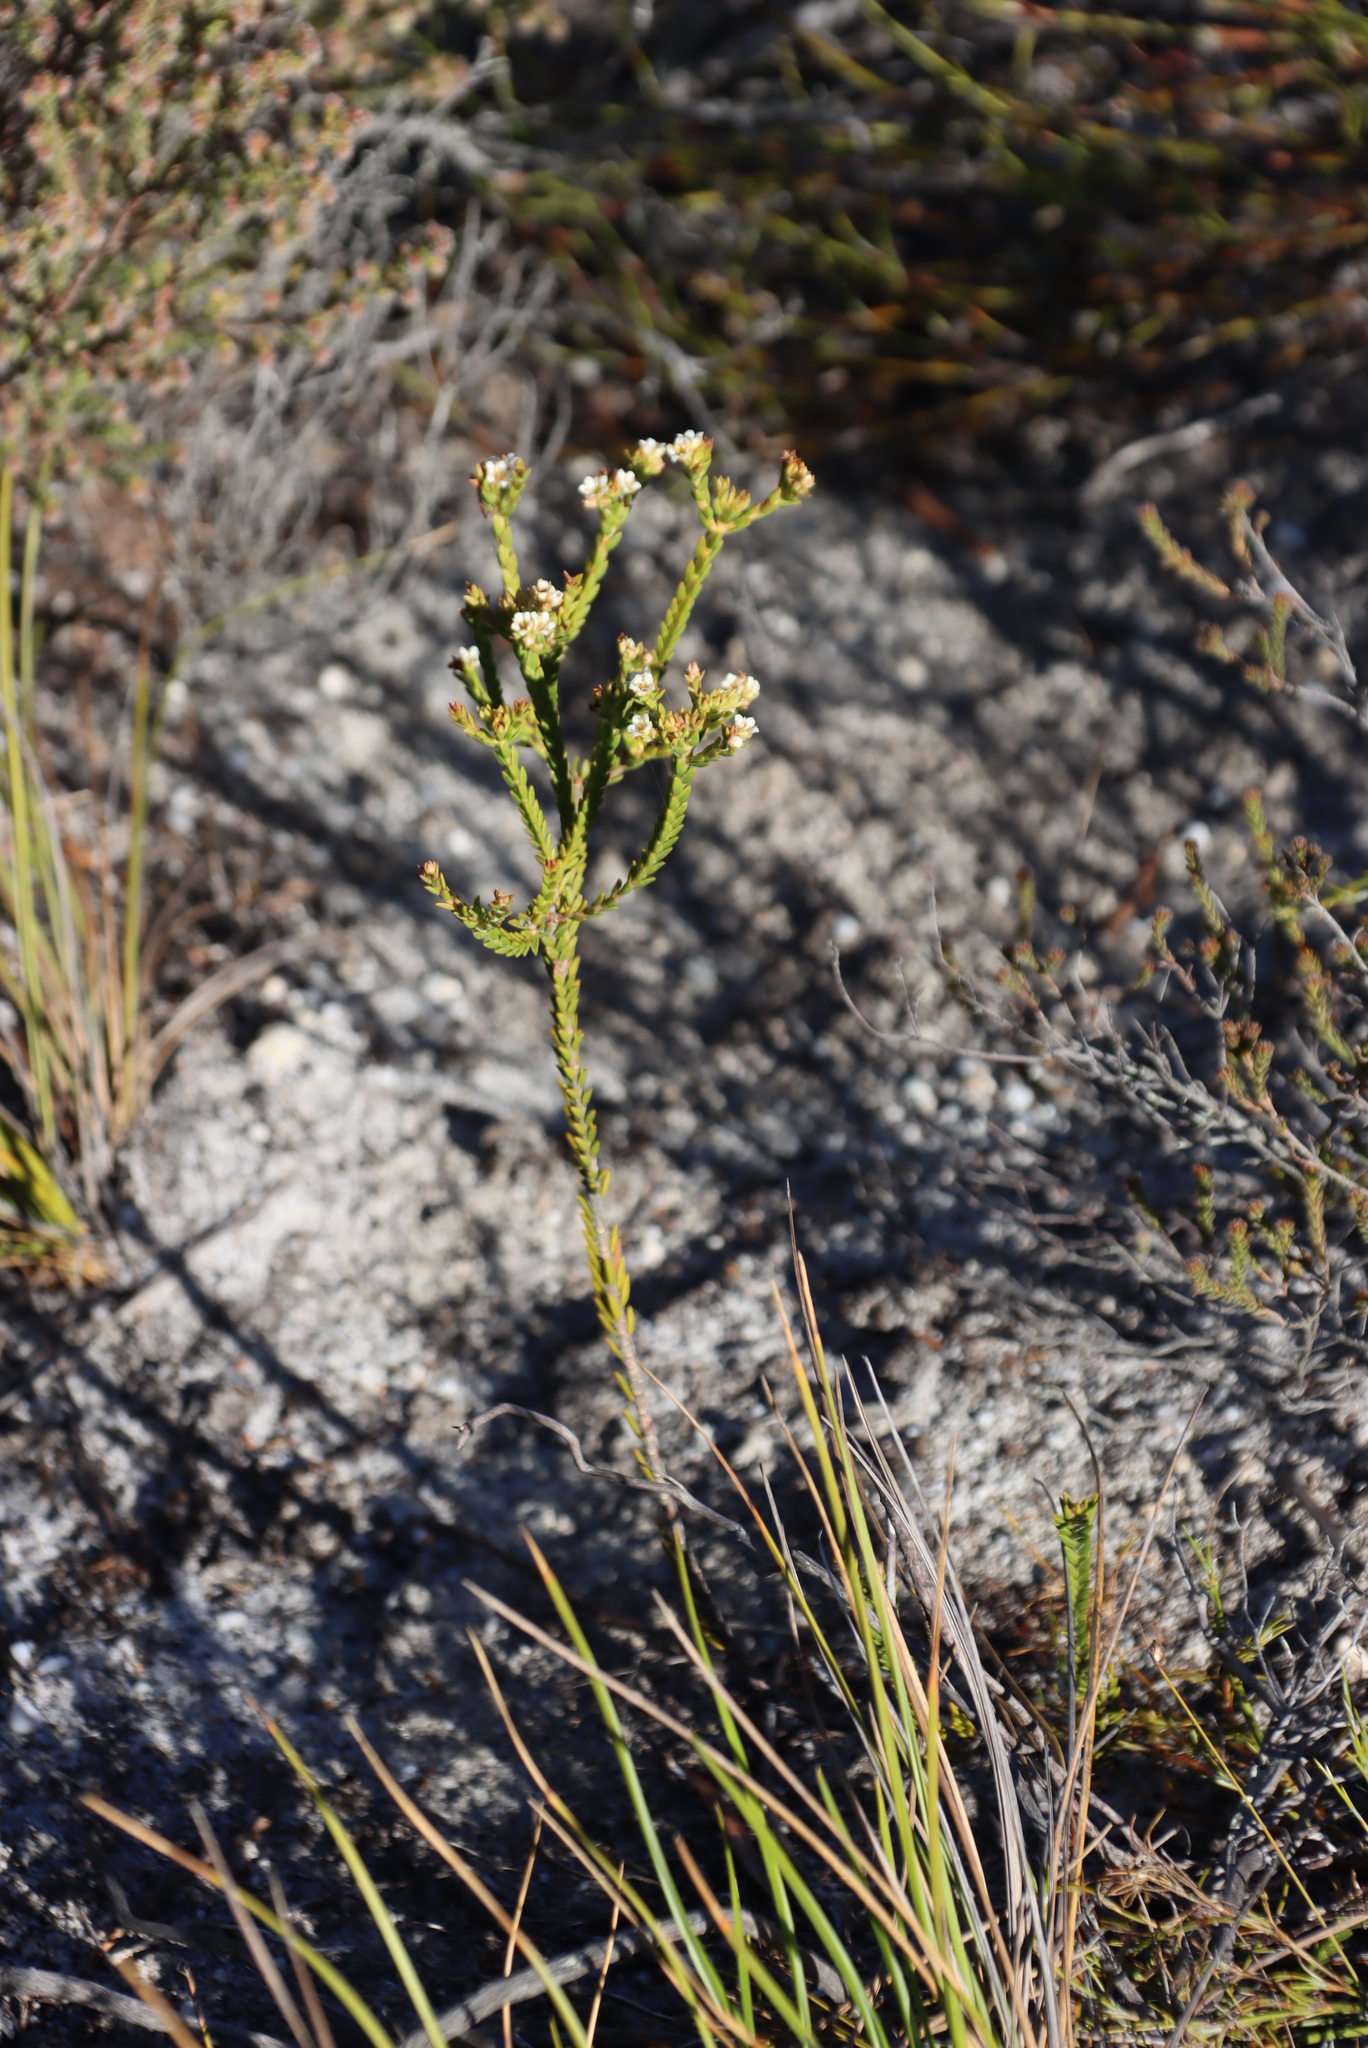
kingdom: Plantae
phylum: Tracheophyta
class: Magnoliopsida
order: Sapindales
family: Rutaceae
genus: Diosma
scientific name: Diosma oppositifolia
